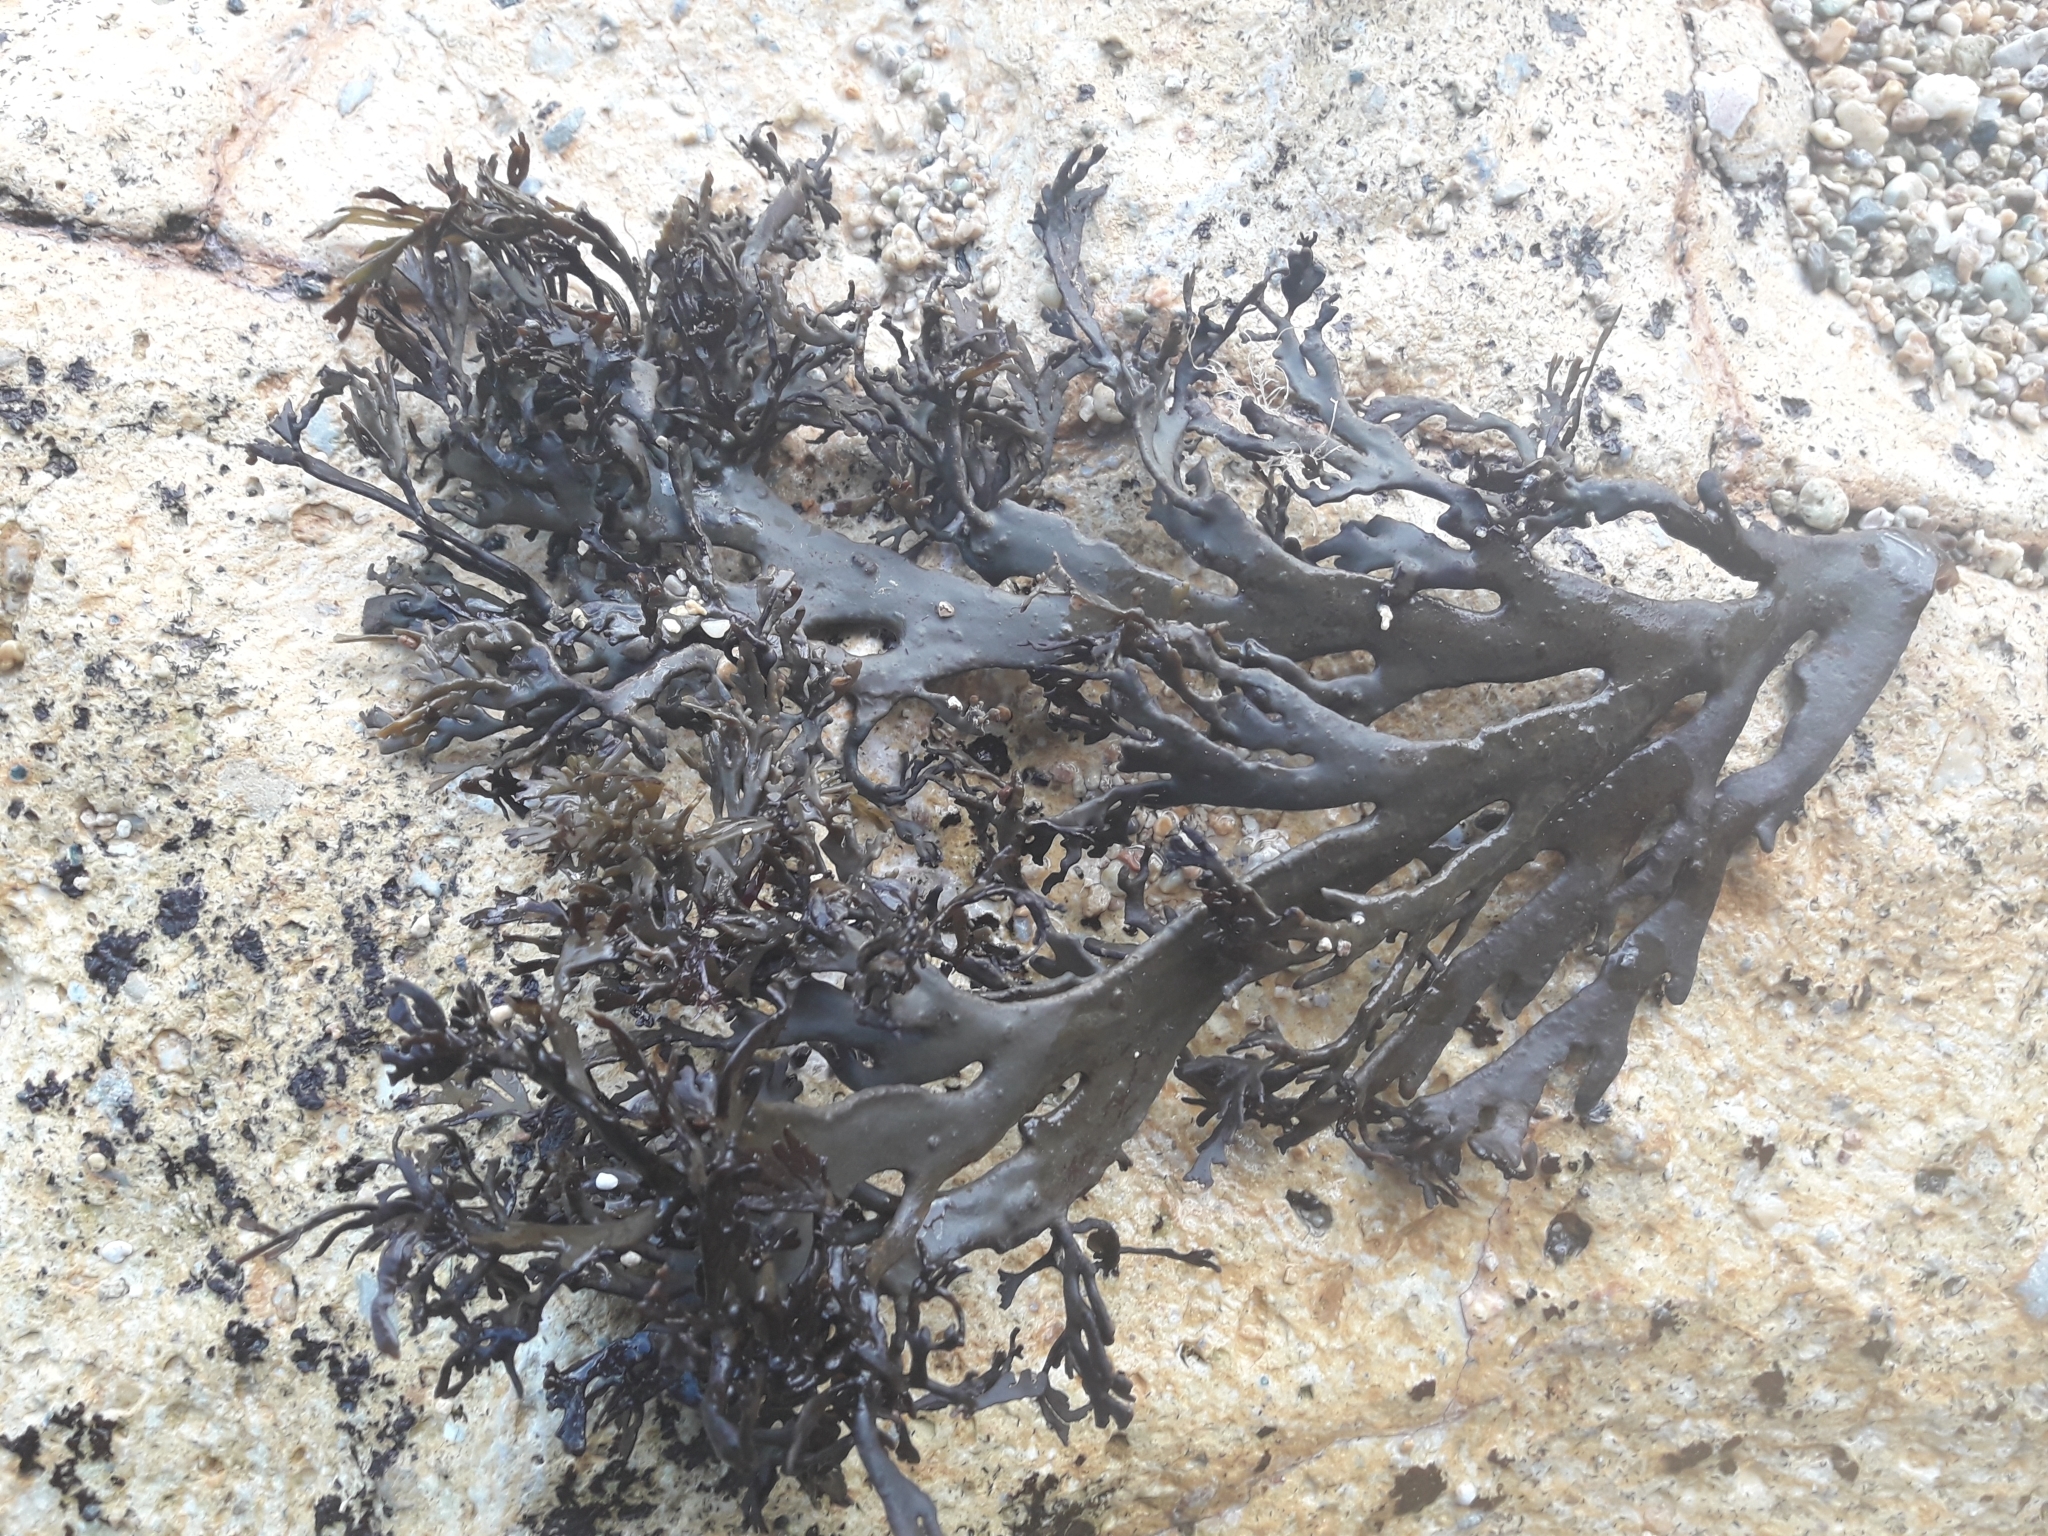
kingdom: Chromista
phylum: Ochrophyta
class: Phaeophyceae
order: Fucales
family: Xiphophoraceae
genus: Xiphophora
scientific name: Xiphophora chondrophylla
